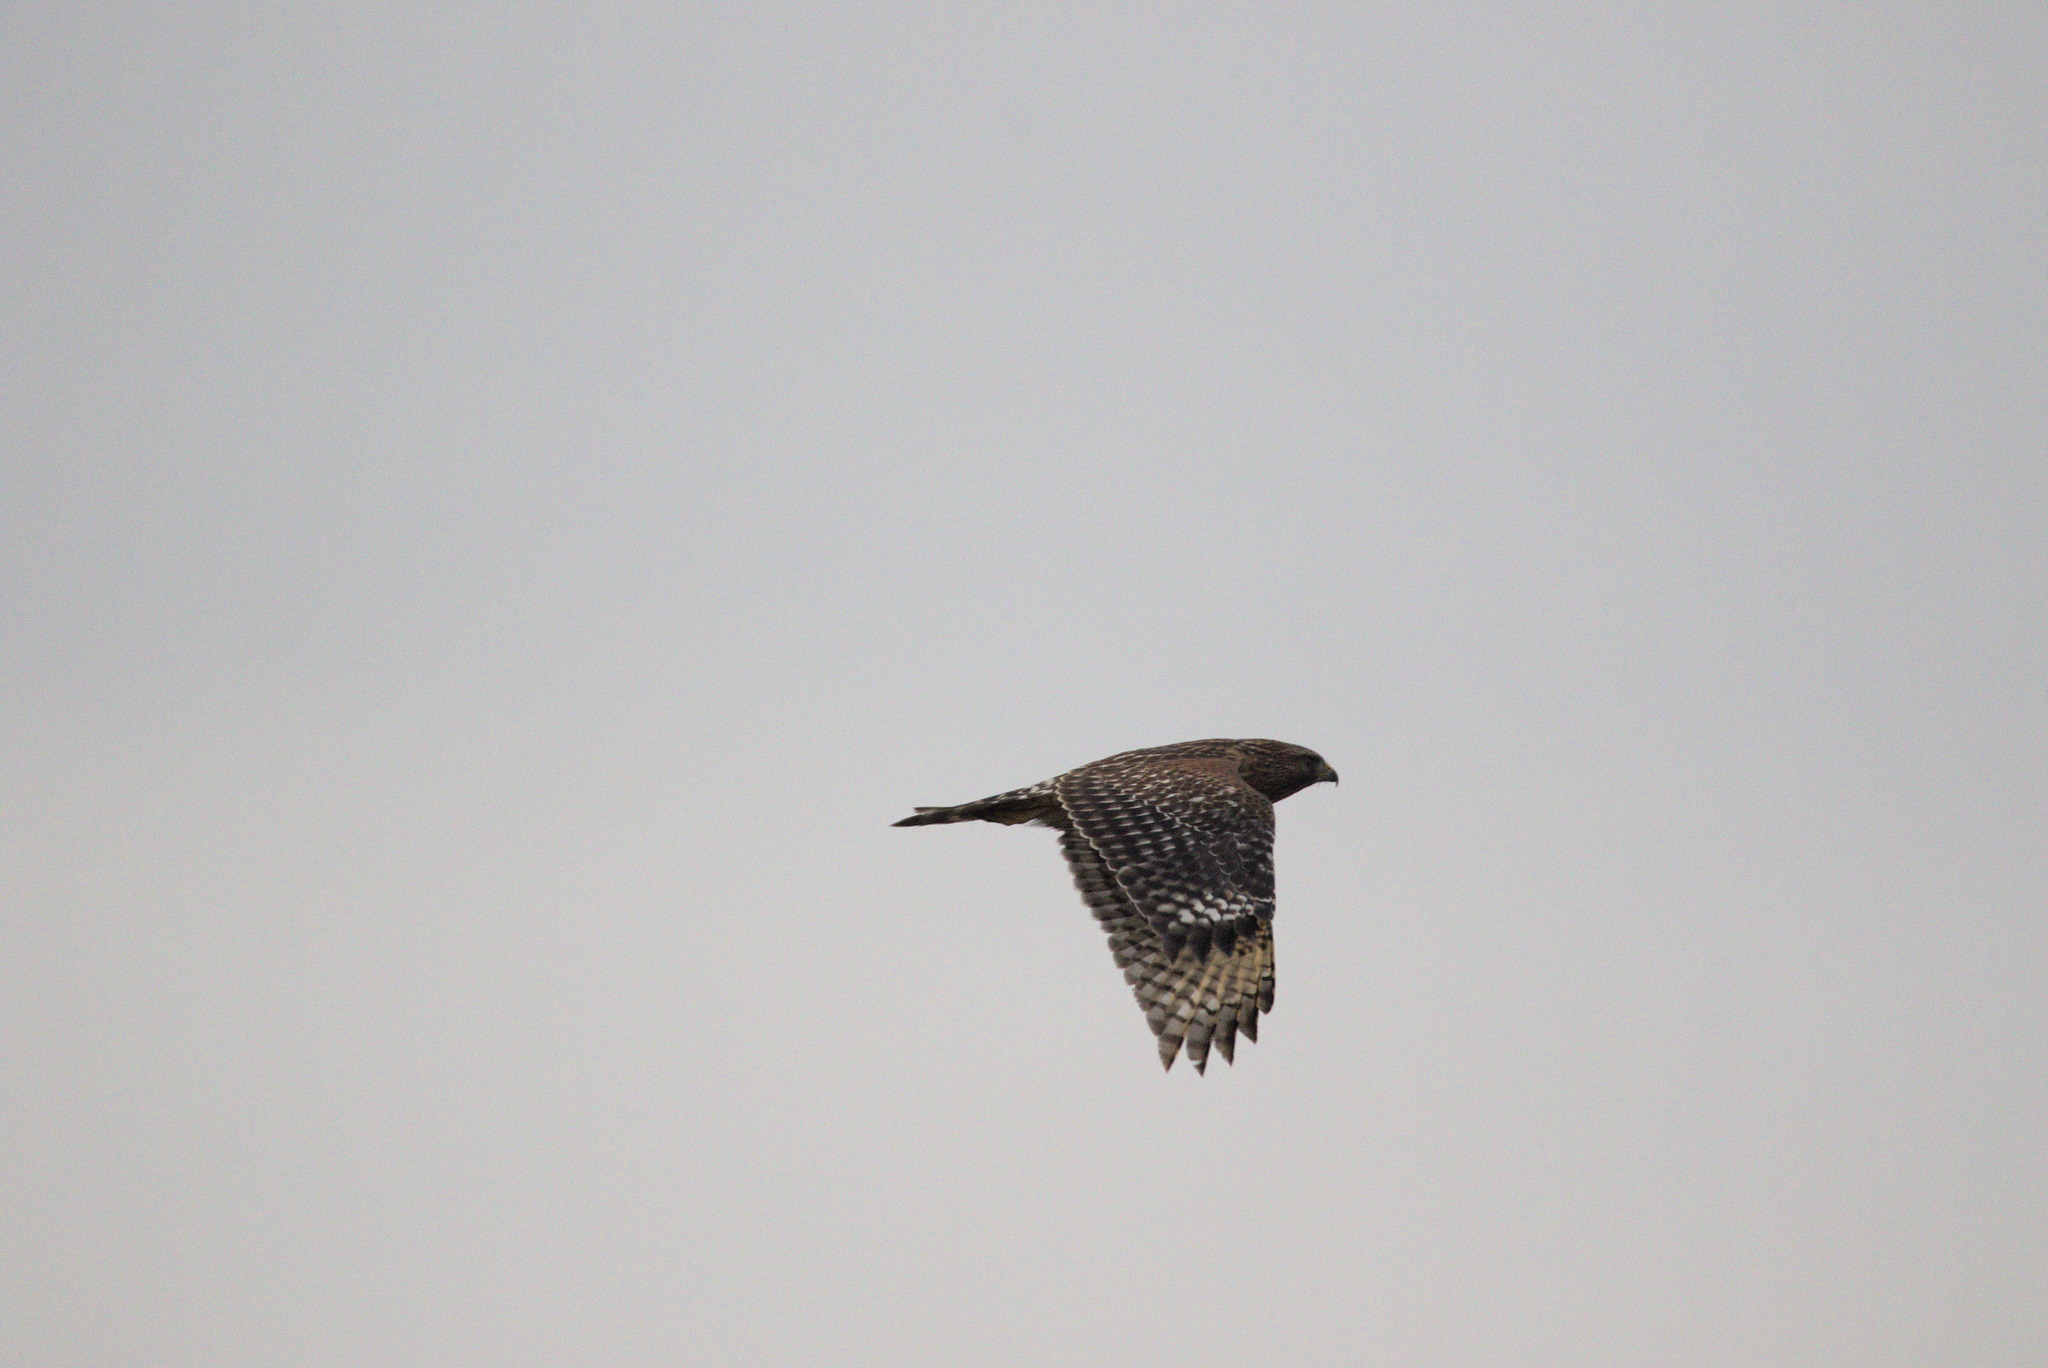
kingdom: Animalia
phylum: Chordata
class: Aves
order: Accipitriformes
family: Accipitridae
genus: Buteo
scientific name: Buteo lineatus
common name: Red-shouldered hawk
